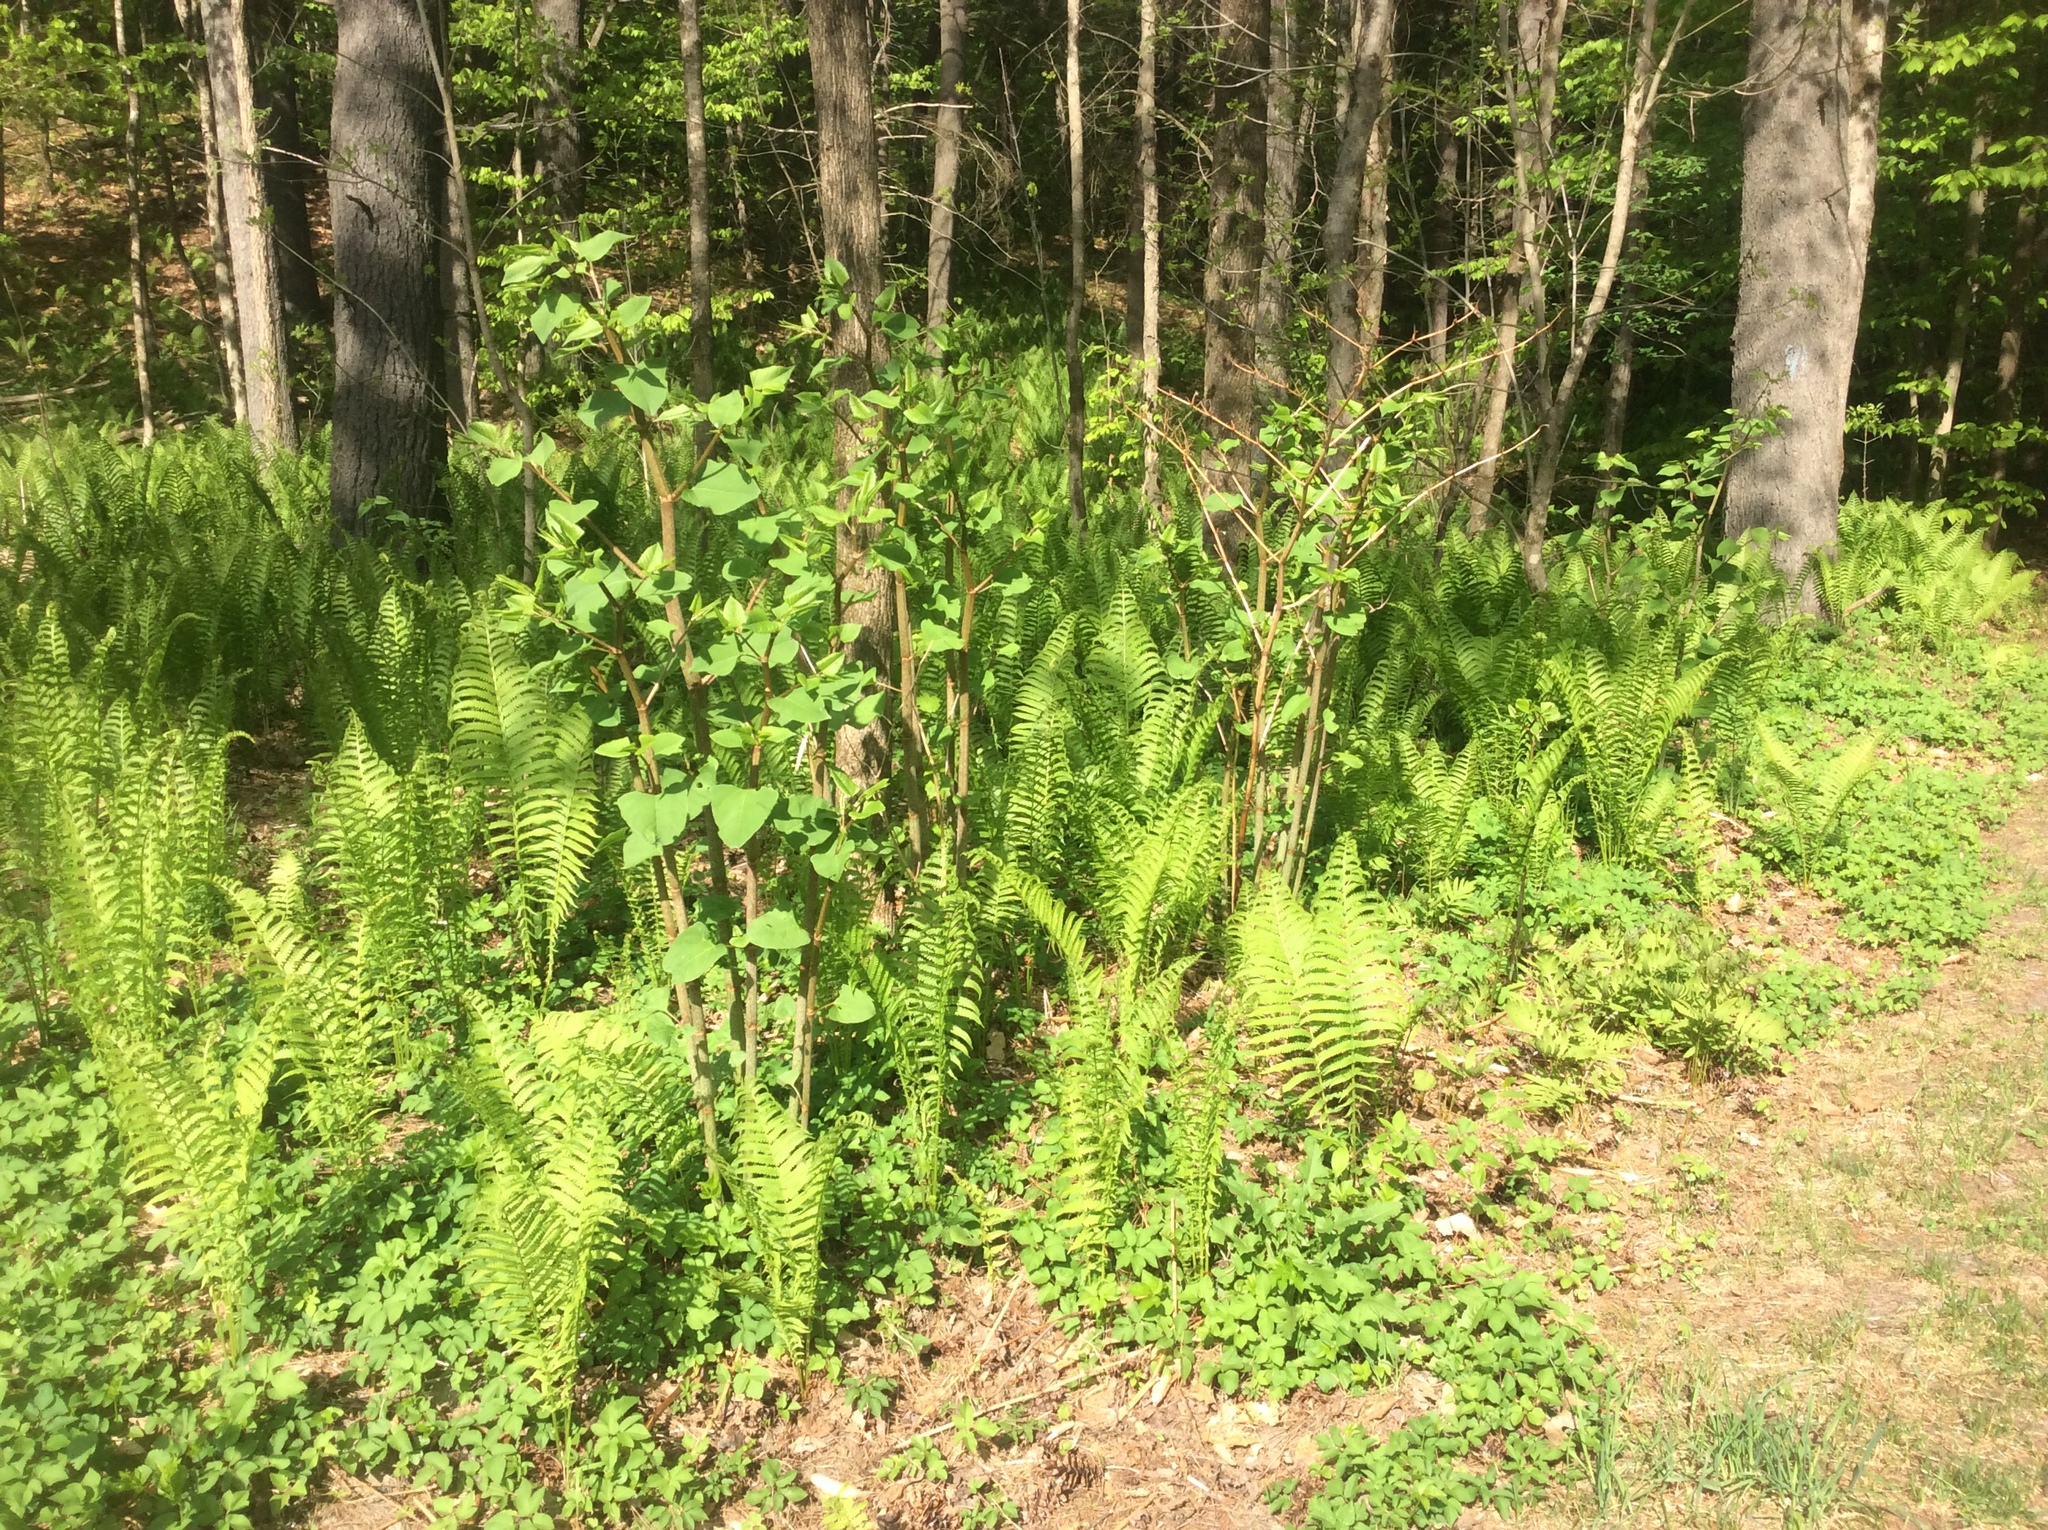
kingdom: Plantae
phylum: Tracheophyta
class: Magnoliopsida
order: Caryophyllales
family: Polygonaceae
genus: Reynoutria
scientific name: Reynoutria japonica
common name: Japanese knotweed
